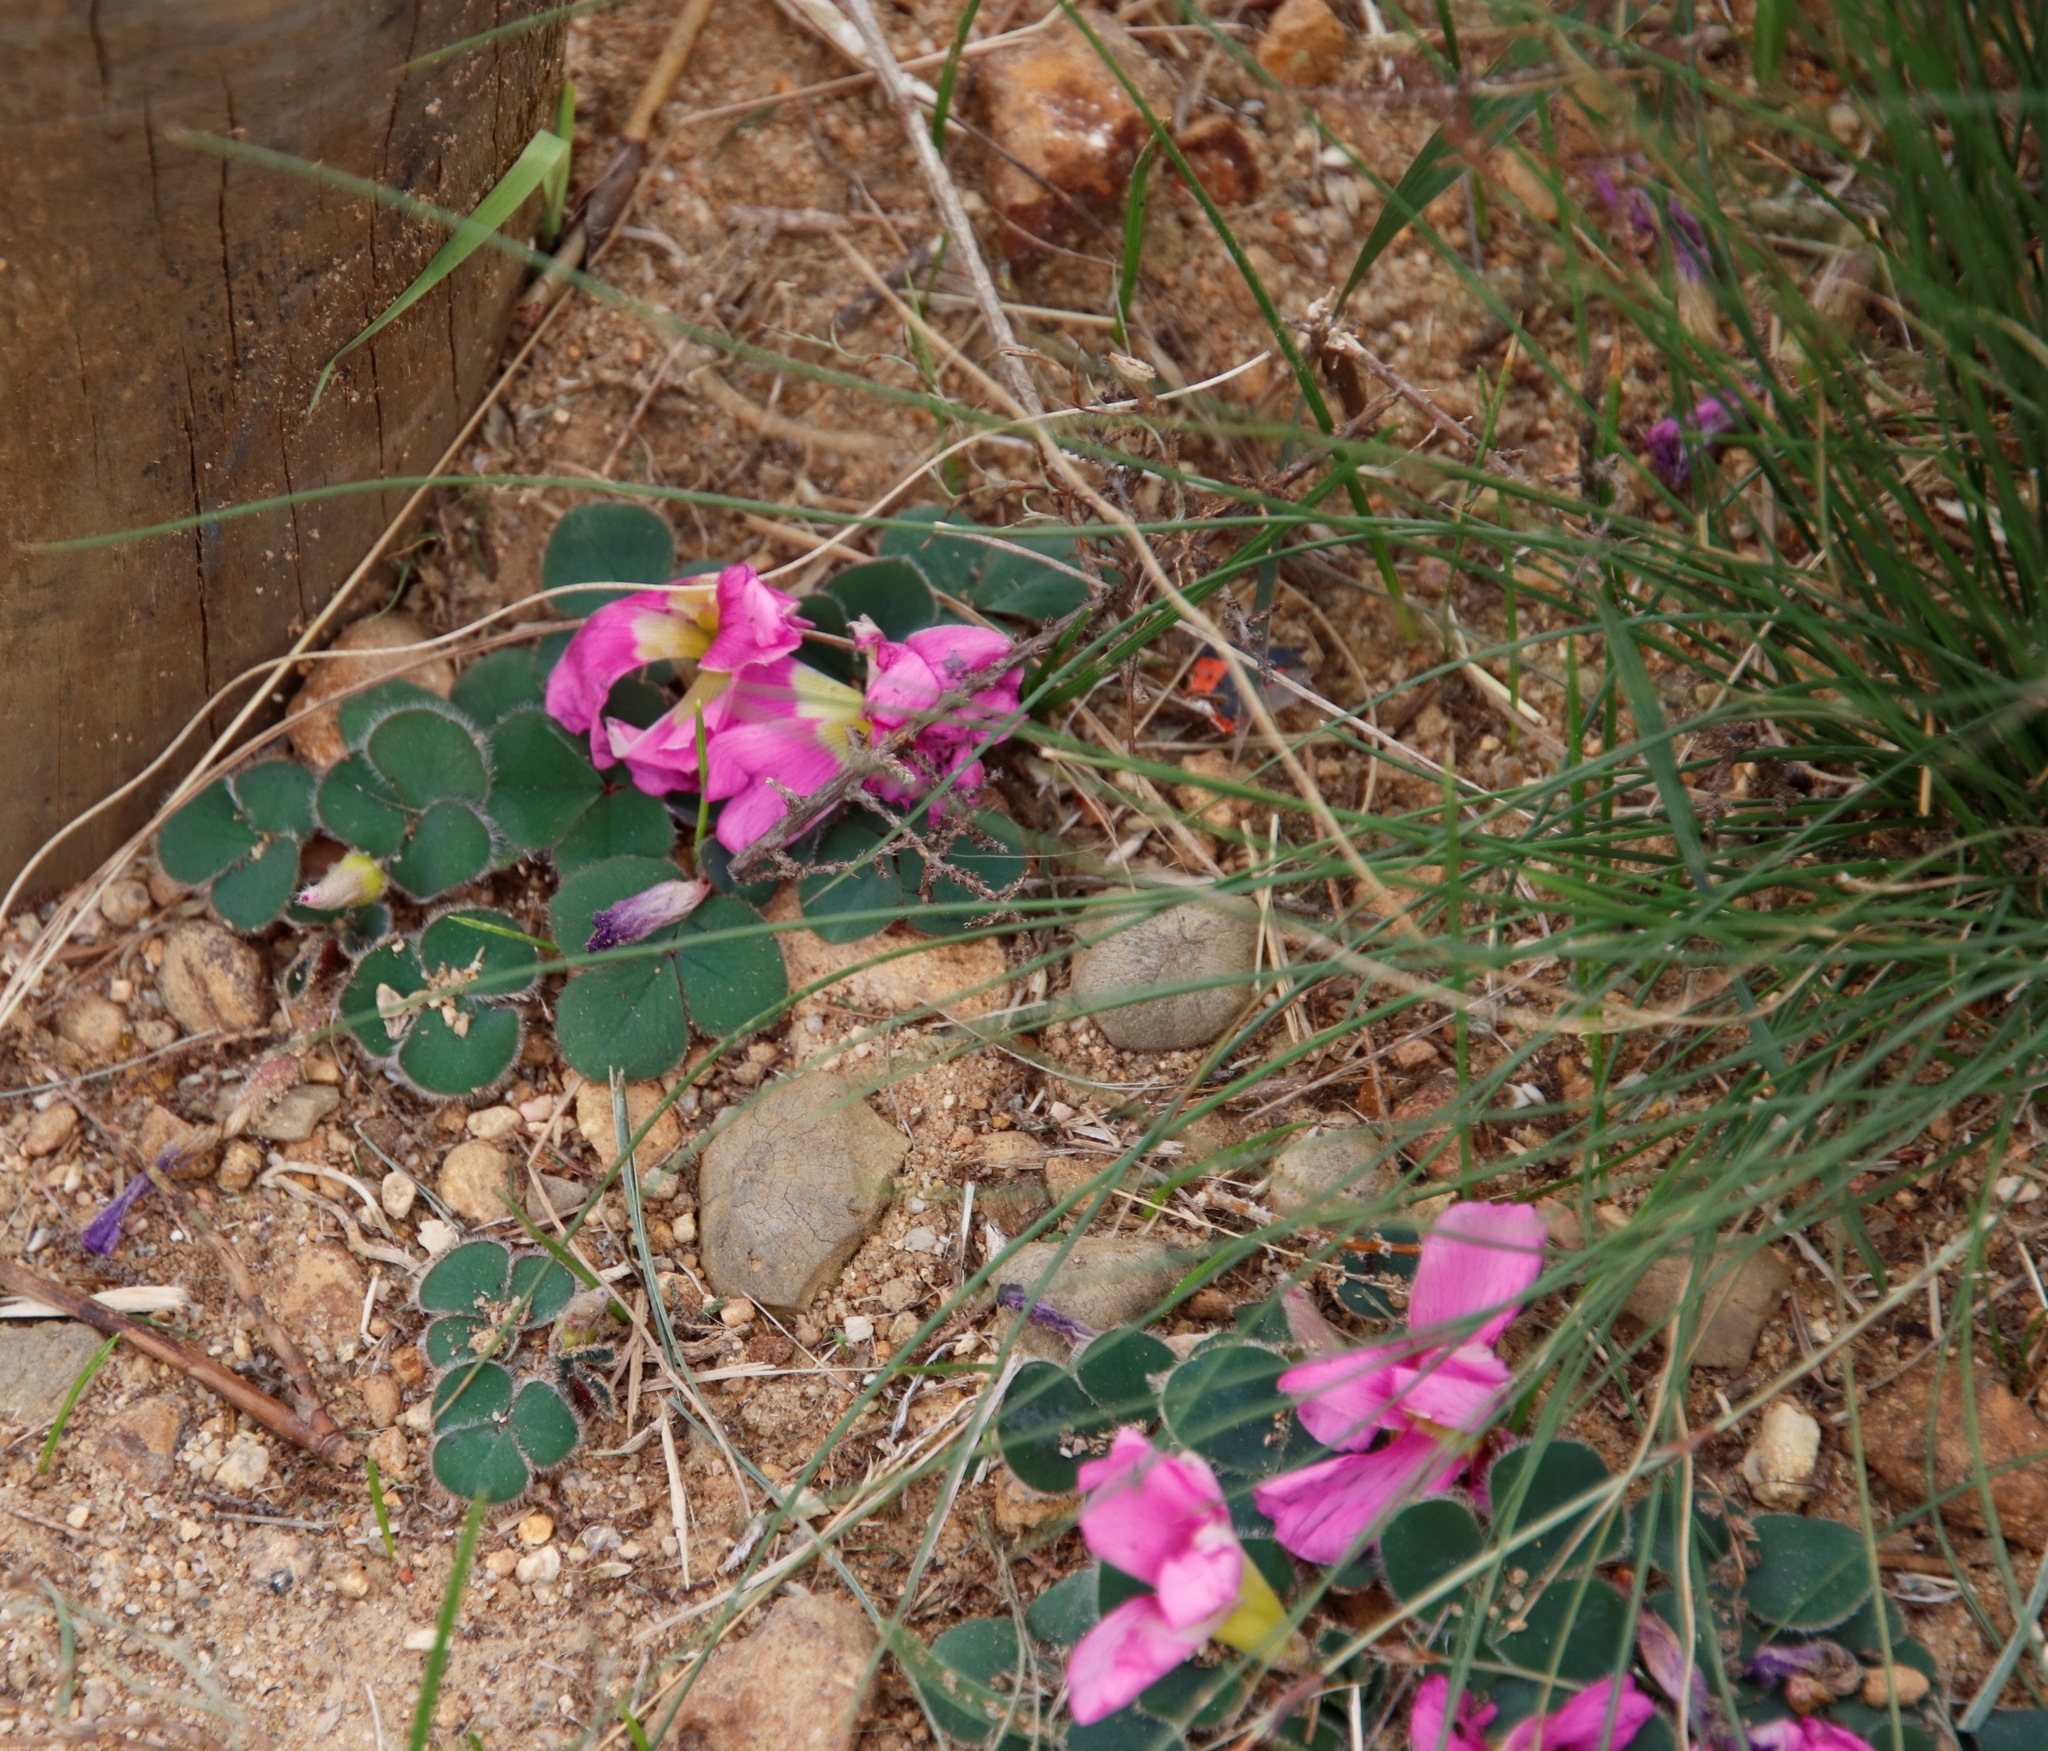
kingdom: Plantae
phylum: Tracheophyta
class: Magnoliopsida
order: Oxalidales
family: Oxalidaceae
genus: Oxalis
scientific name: Oxalis purpurea
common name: Purple woodsorrel
